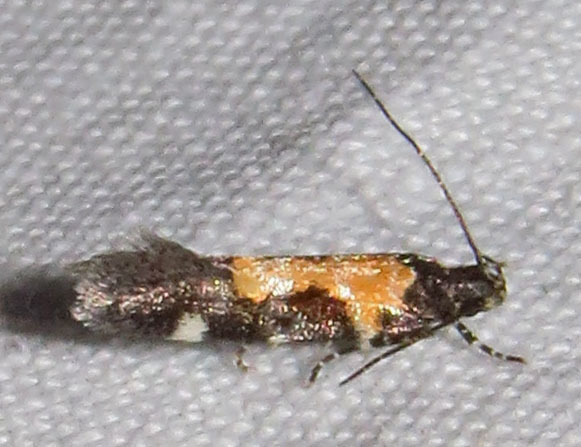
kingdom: Animalia
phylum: Arthropoda
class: Insecta
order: Lepidoptera
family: Gelechiidae
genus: Stegasta
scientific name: Stegasta bosqueella
